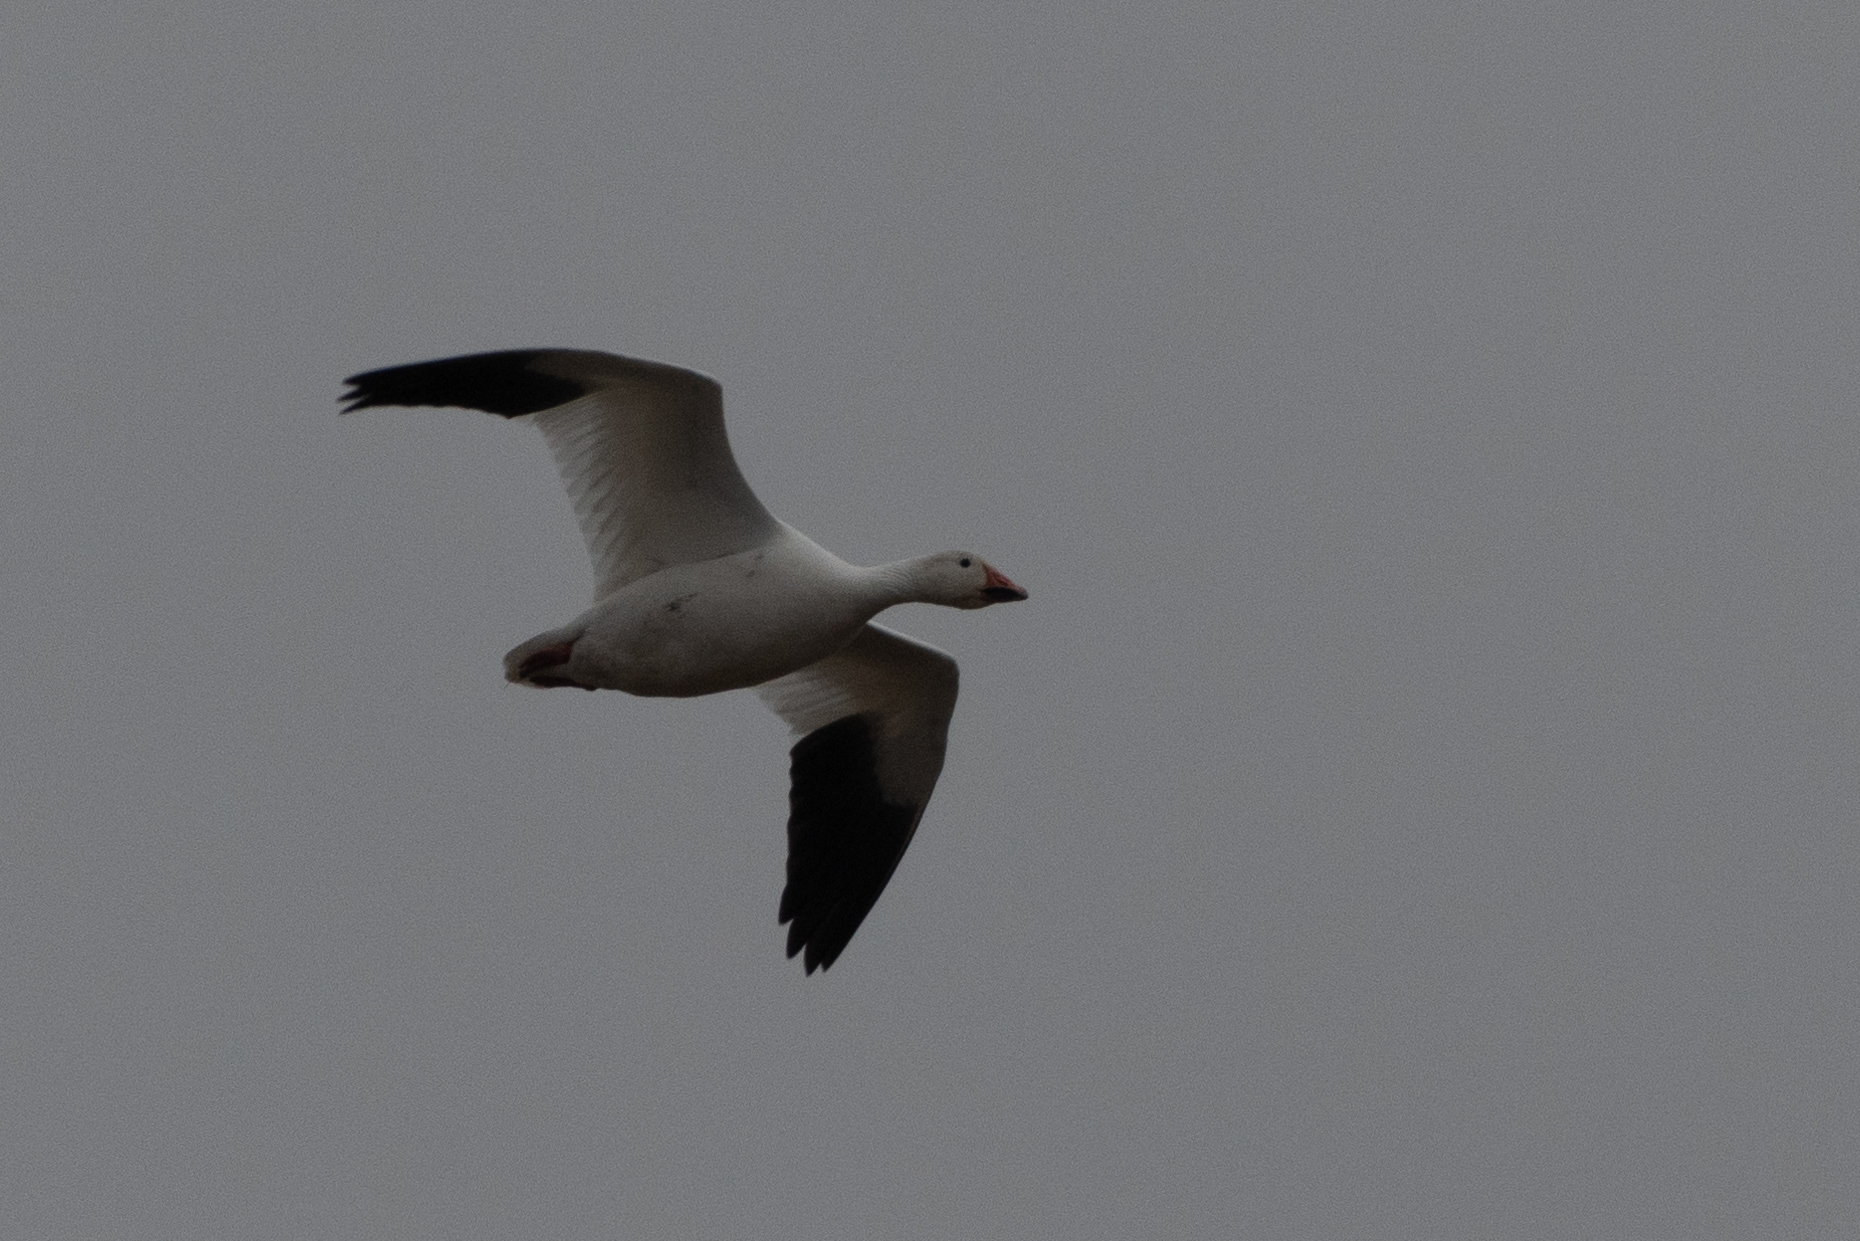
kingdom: Animalia
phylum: Chordata
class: Aves
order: Anseriformes
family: Anatidae
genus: Anser
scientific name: Anser caerulescens
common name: Snow goose
